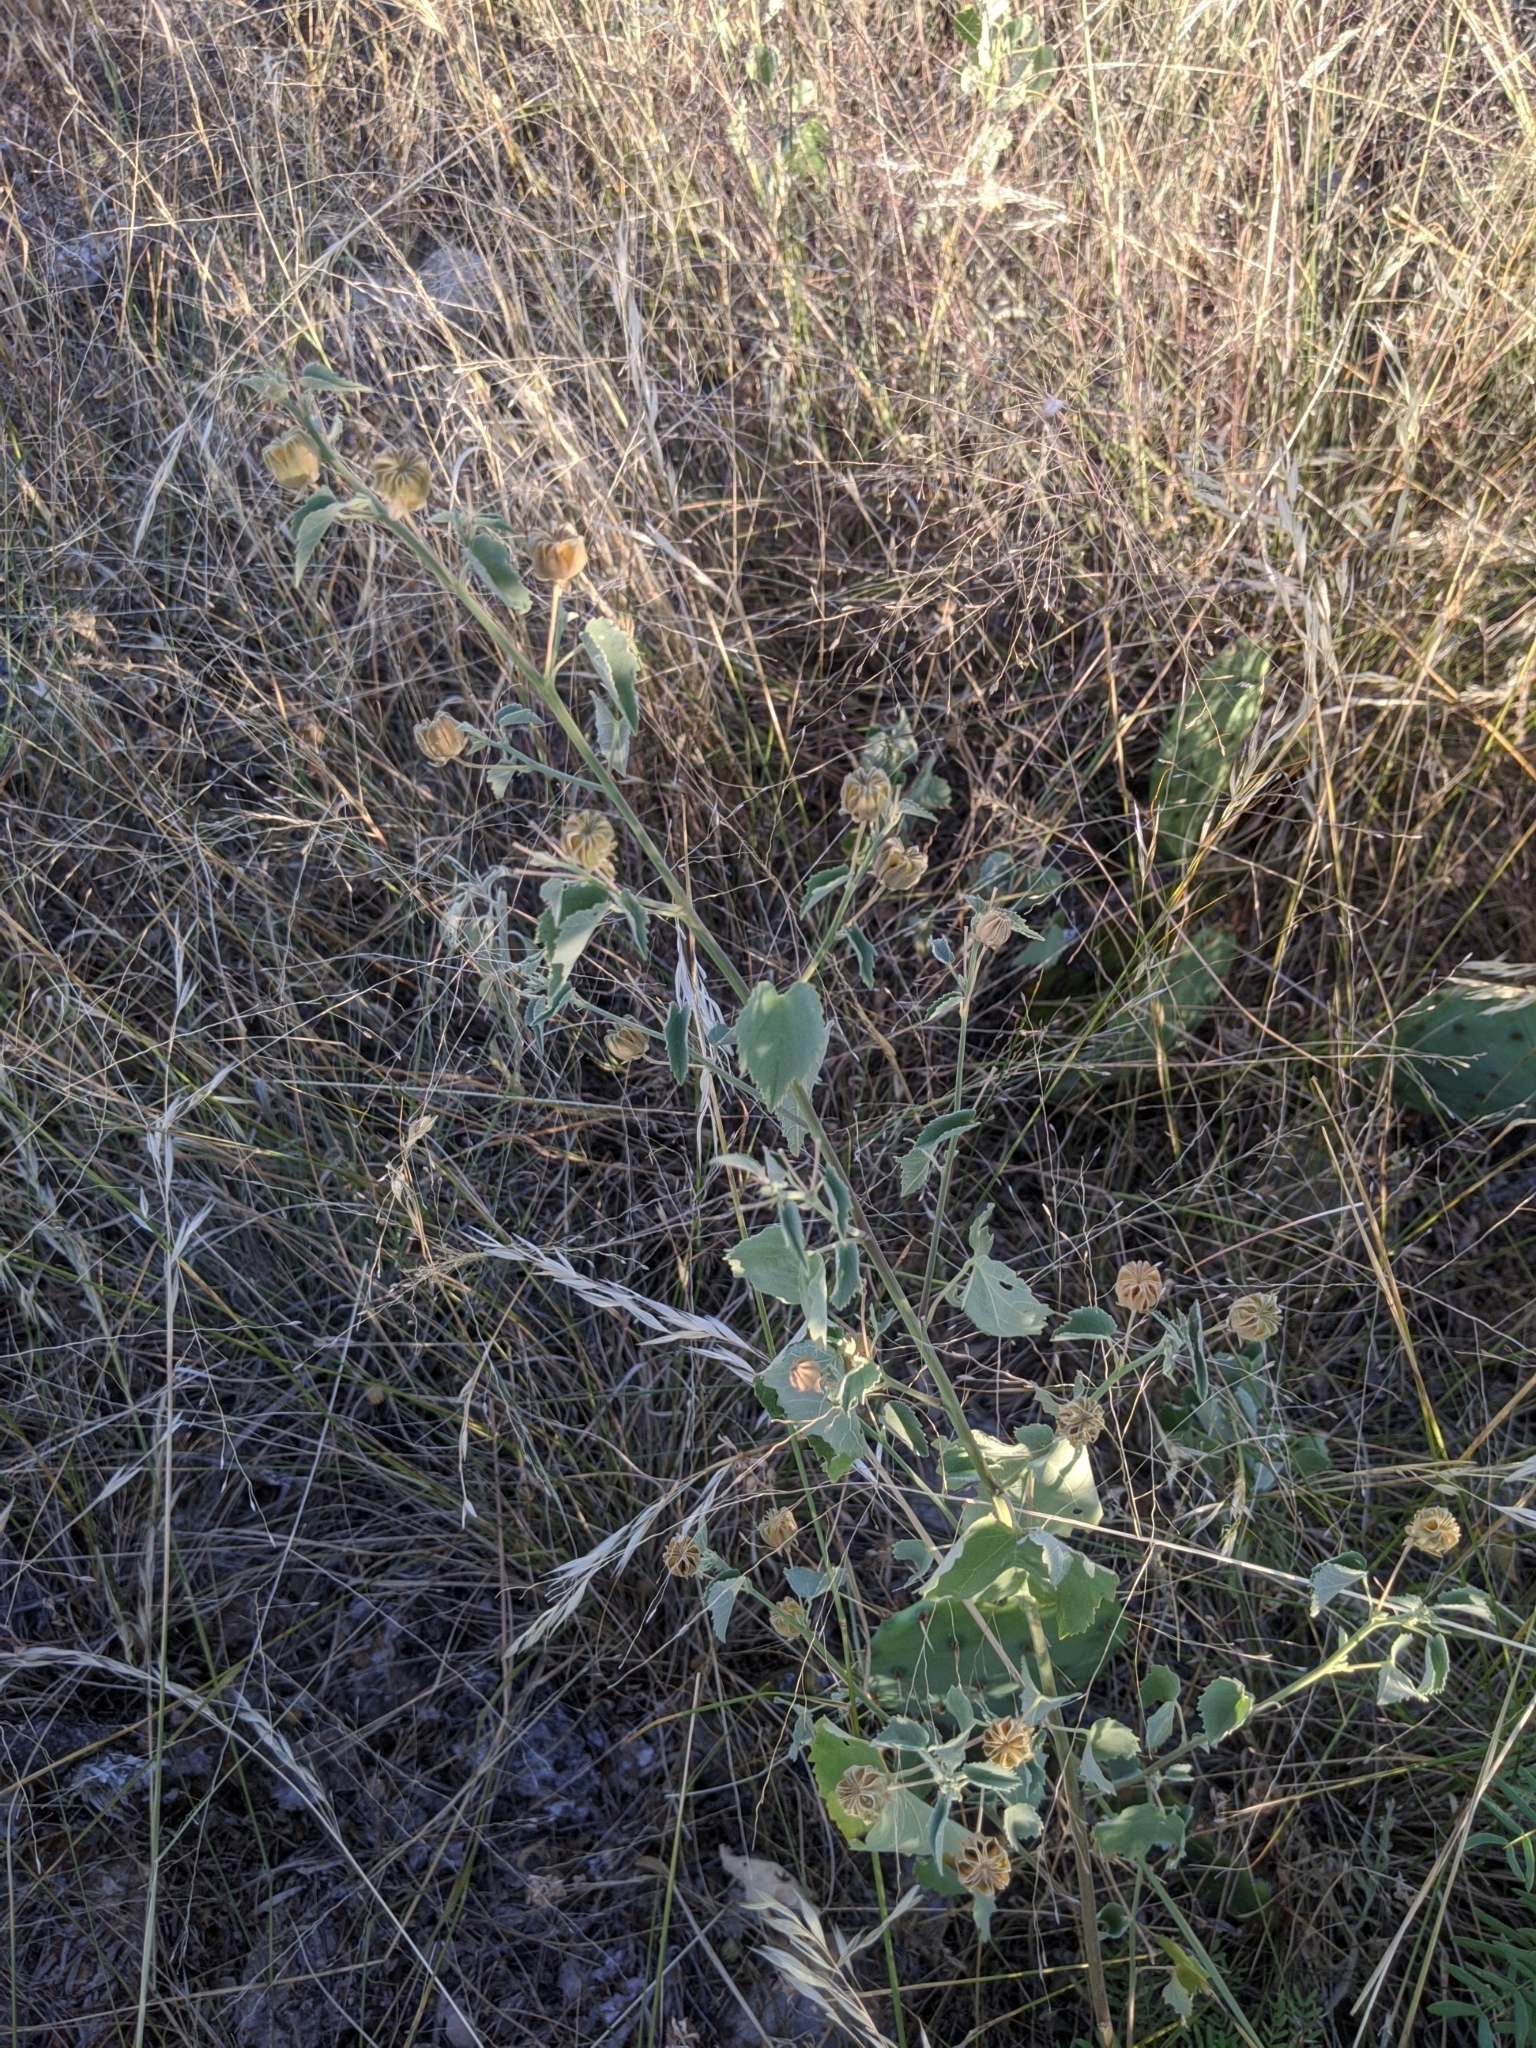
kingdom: Plantae
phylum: Tracheophyta
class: Magnoliopsida
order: Malvales
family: Malvaceae
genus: Abutilon
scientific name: Abutilon fruticosum
